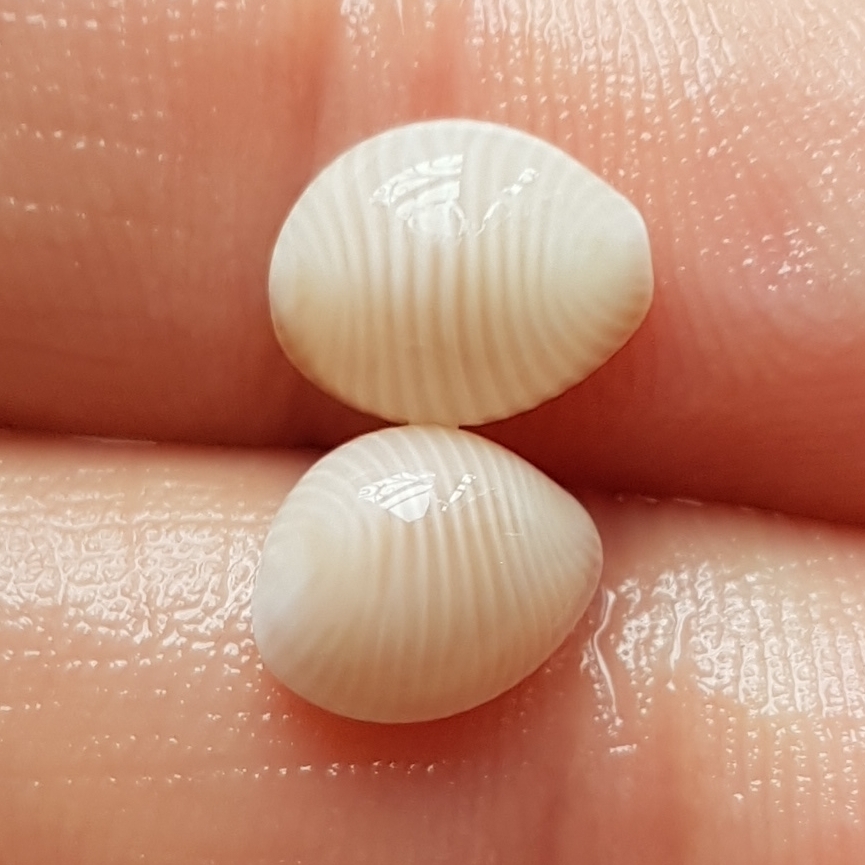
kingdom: Animalia
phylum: Mollusca
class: Gastropoda
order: Littorinimorpha
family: Triviidae
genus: Trivia
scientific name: Trivia arctica
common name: Arctic cowrie
